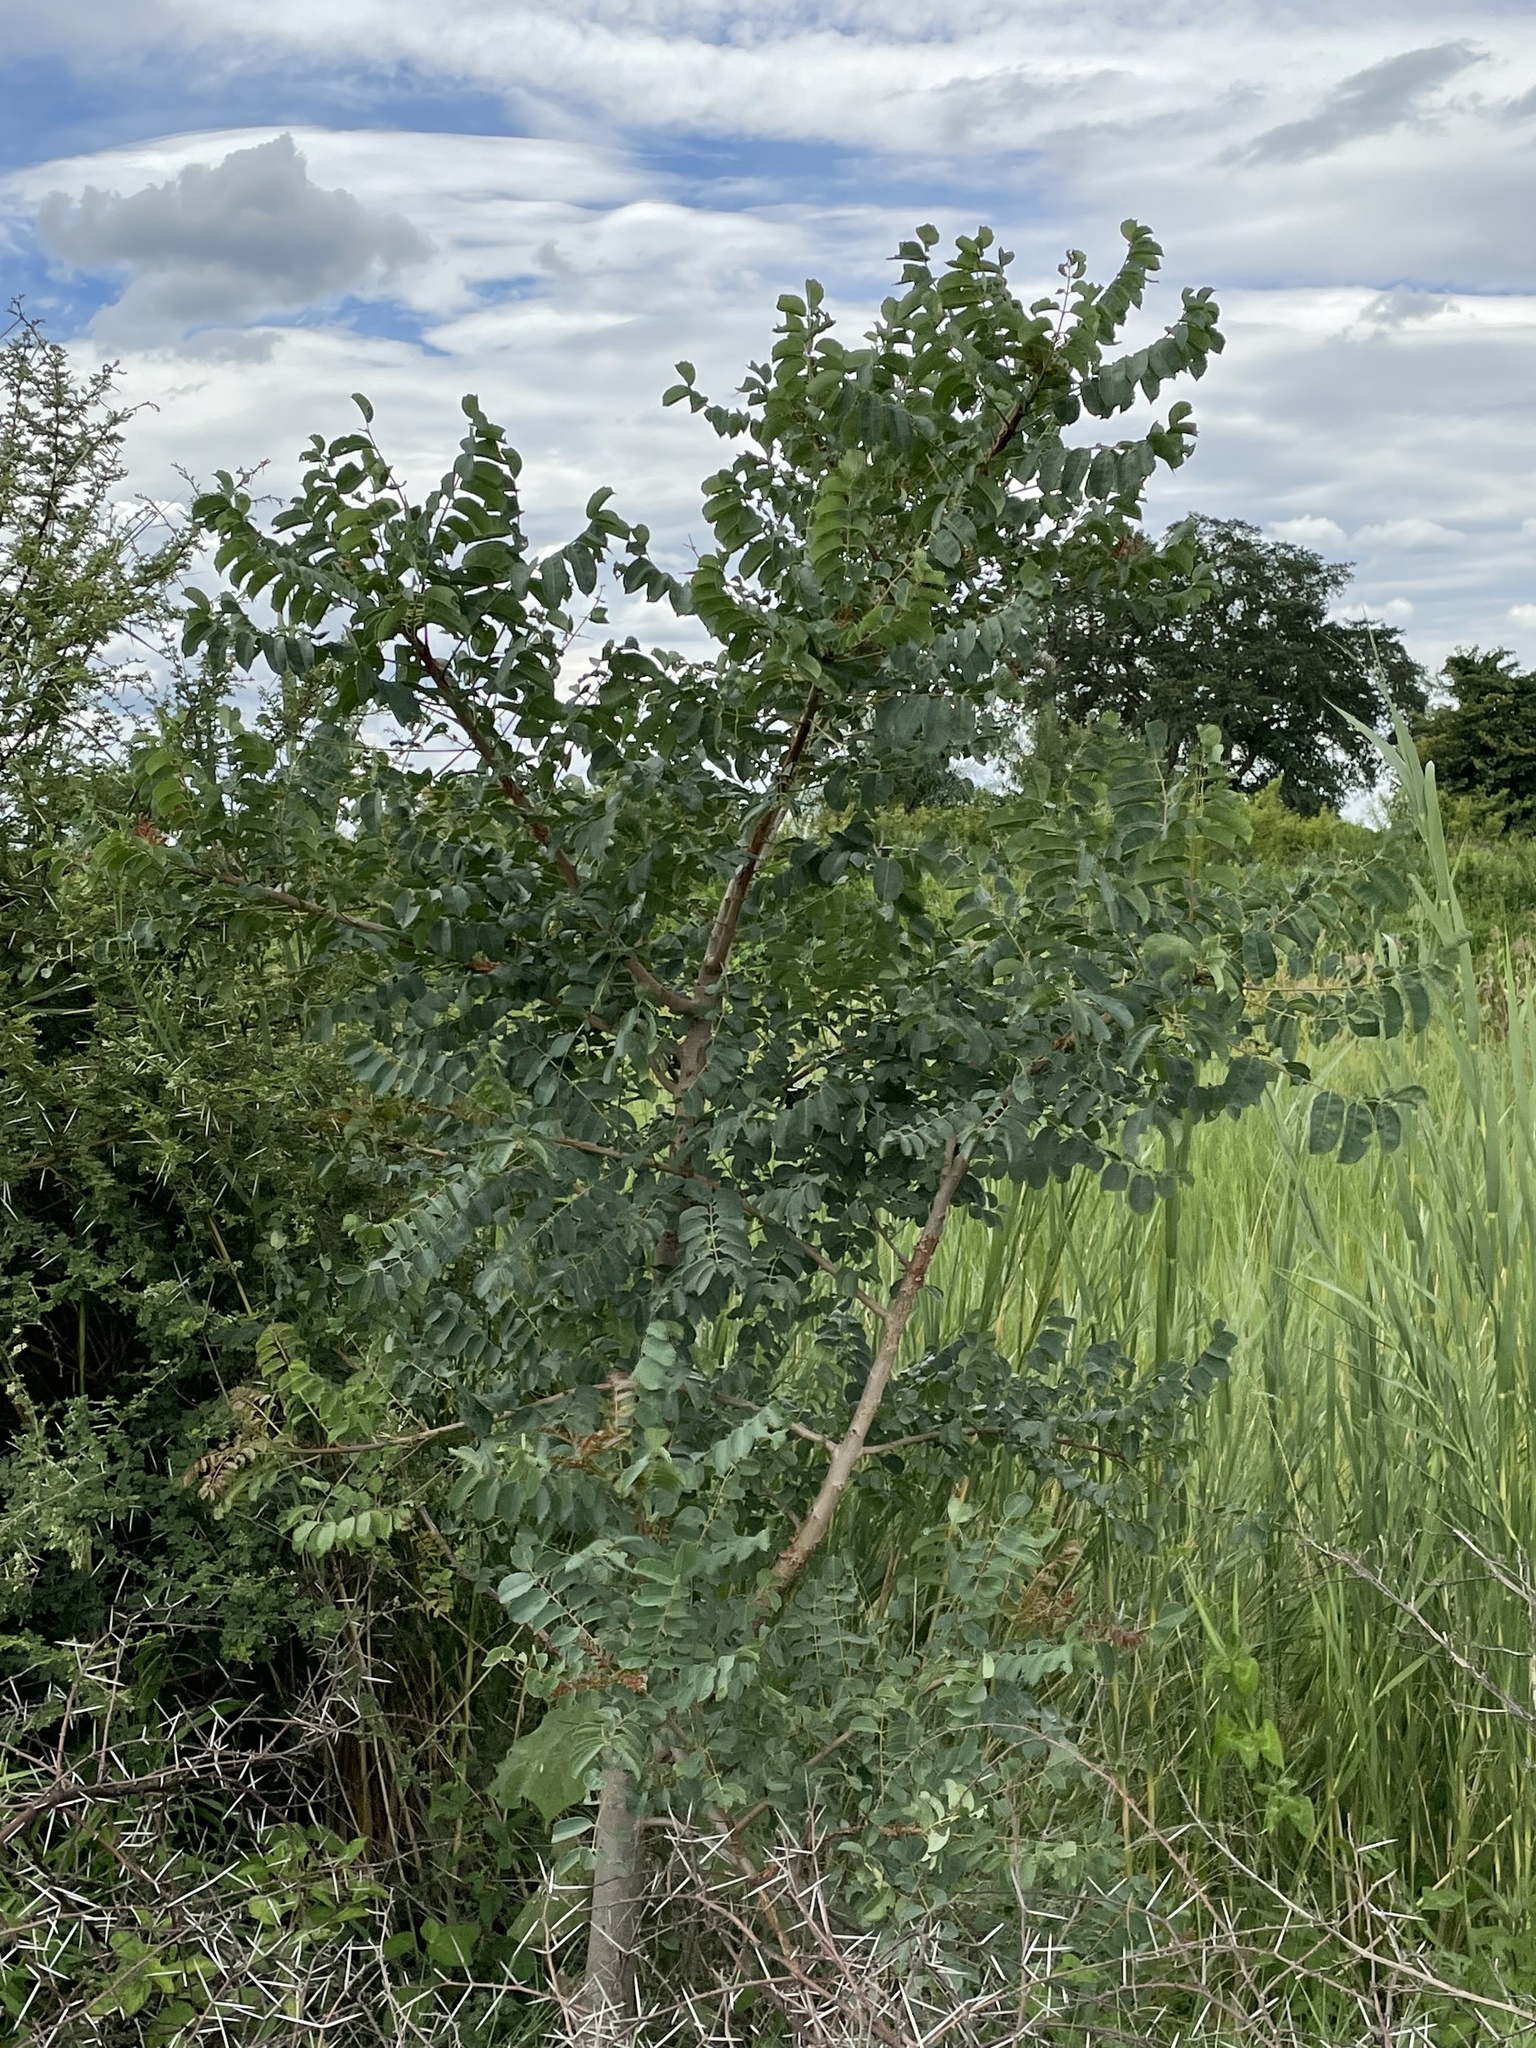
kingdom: Plantae
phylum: Tracheophyta
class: Magnoliopsida
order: Sapindales
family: Anacardiaceae
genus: Sclerocarya
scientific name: Sclerocarya birrea
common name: Marula
